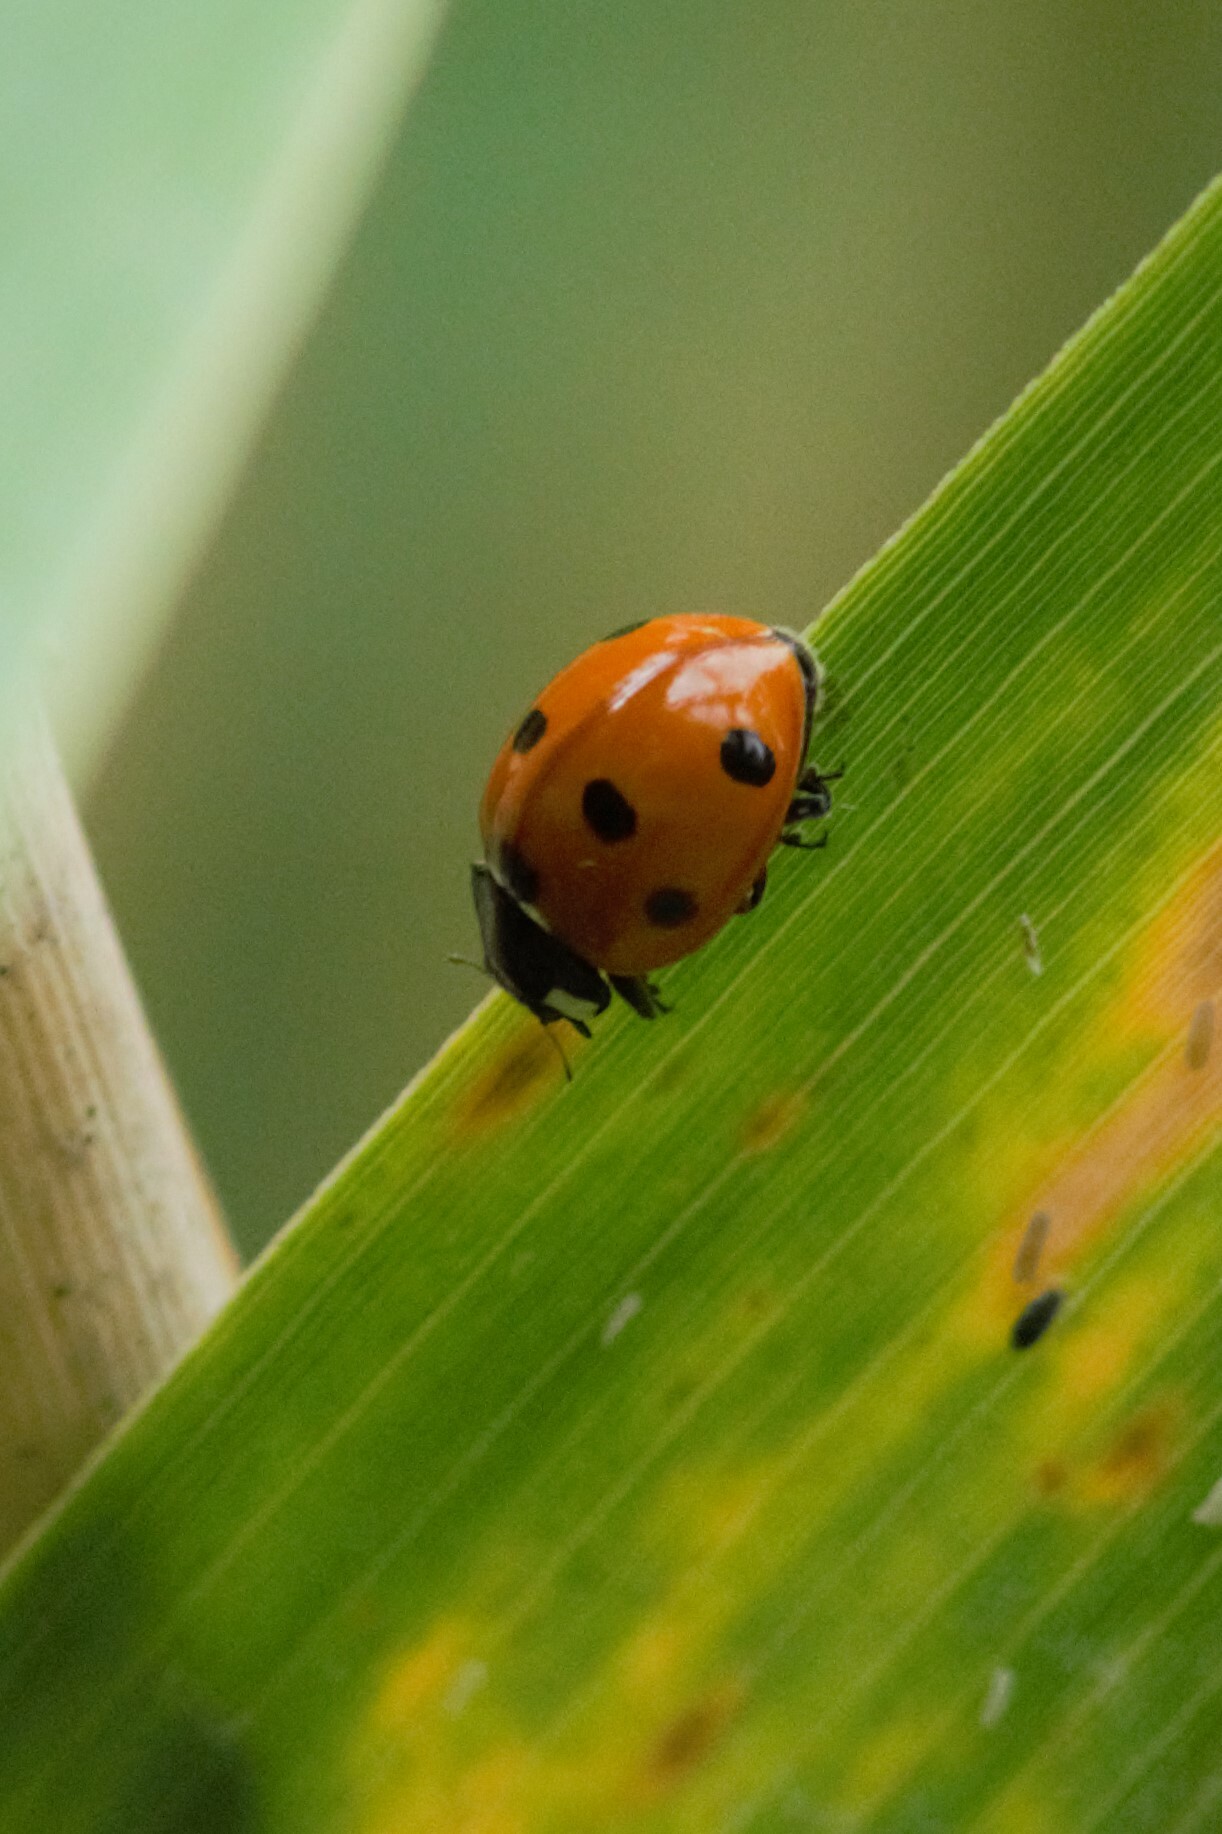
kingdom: Animalia
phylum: Arthropoda
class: Insecta
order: Coleoptera
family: Coccinellidae
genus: Coccinella
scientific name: Coccinella septempunctata
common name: Sevenspotted lady beetle
